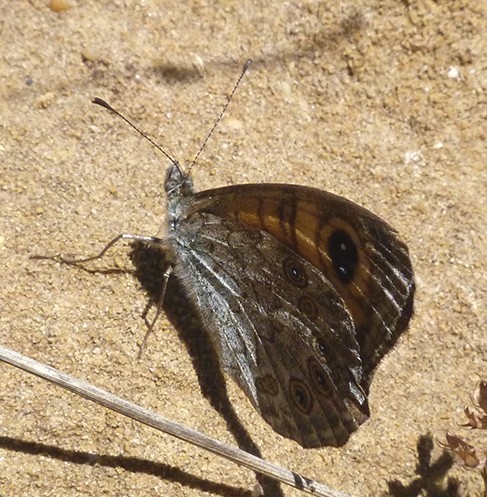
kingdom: Animalia
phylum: Arthropoda
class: Insecta
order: Lepidoptera
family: Nymphalidae
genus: Pararge
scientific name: Pararge Lasiommata maera
